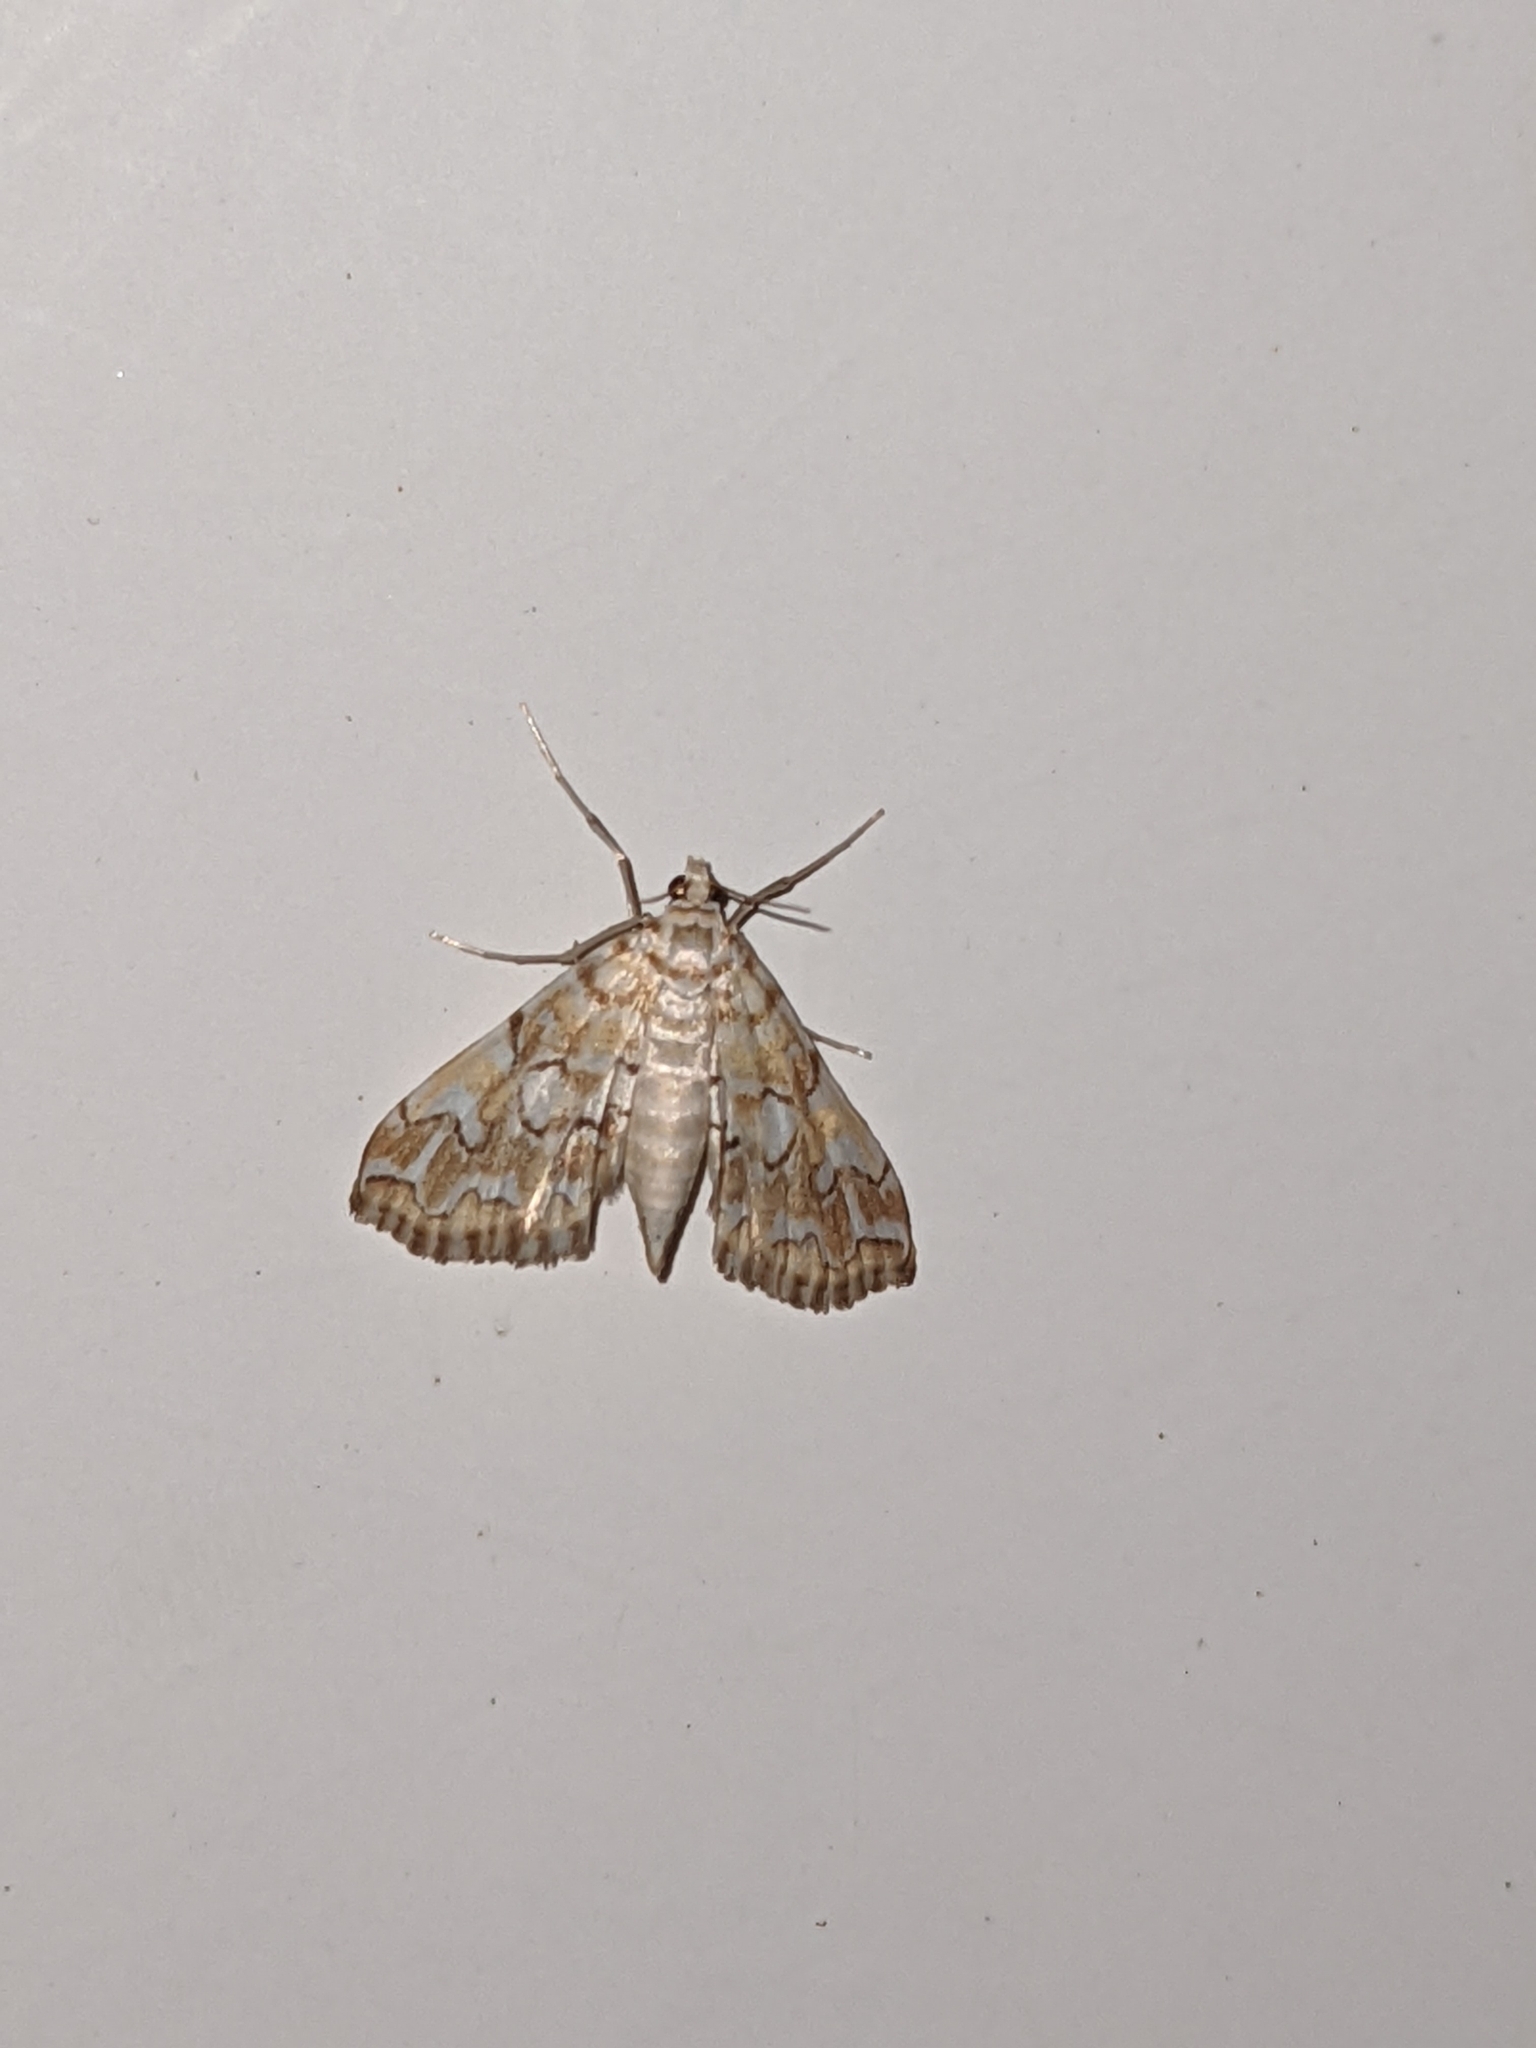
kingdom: Animalia
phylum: Arthropoda
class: Insecta
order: Lepidoptera
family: Crambidae
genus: Elophila
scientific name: Elophila icciusalis
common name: Pondside pyralid moth
